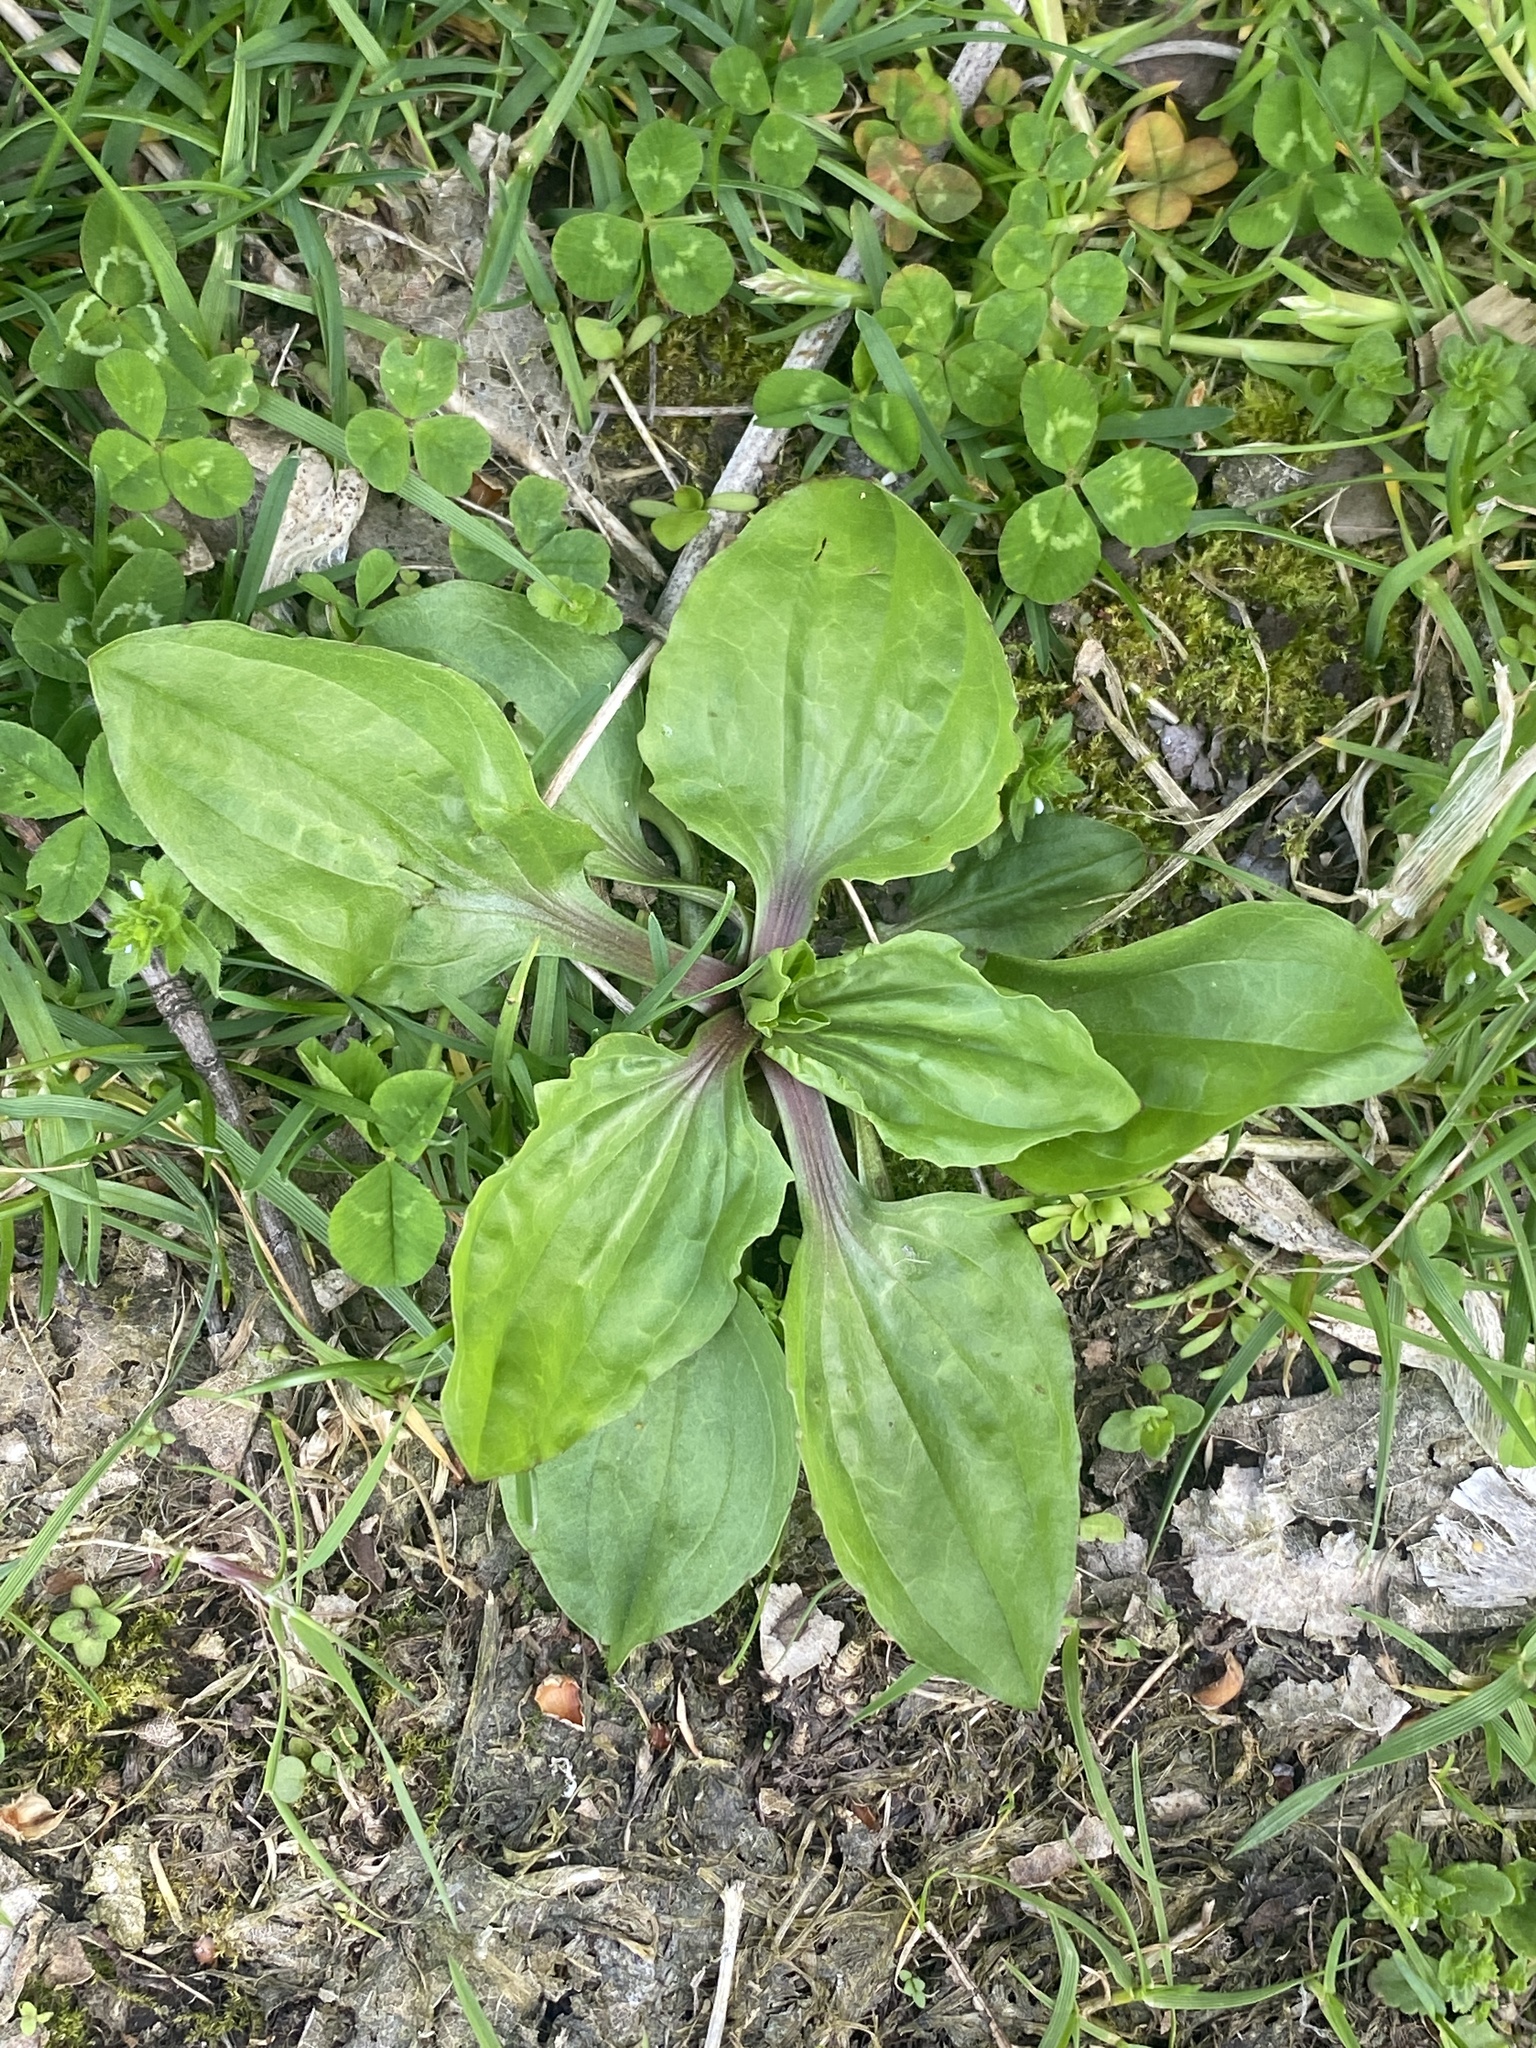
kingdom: Plantae
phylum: Tracheophyta
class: Magnoliopsida
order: Lamiales
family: Plantaginaceae
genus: Plantago
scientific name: Plantago rugelii
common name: American plantain
